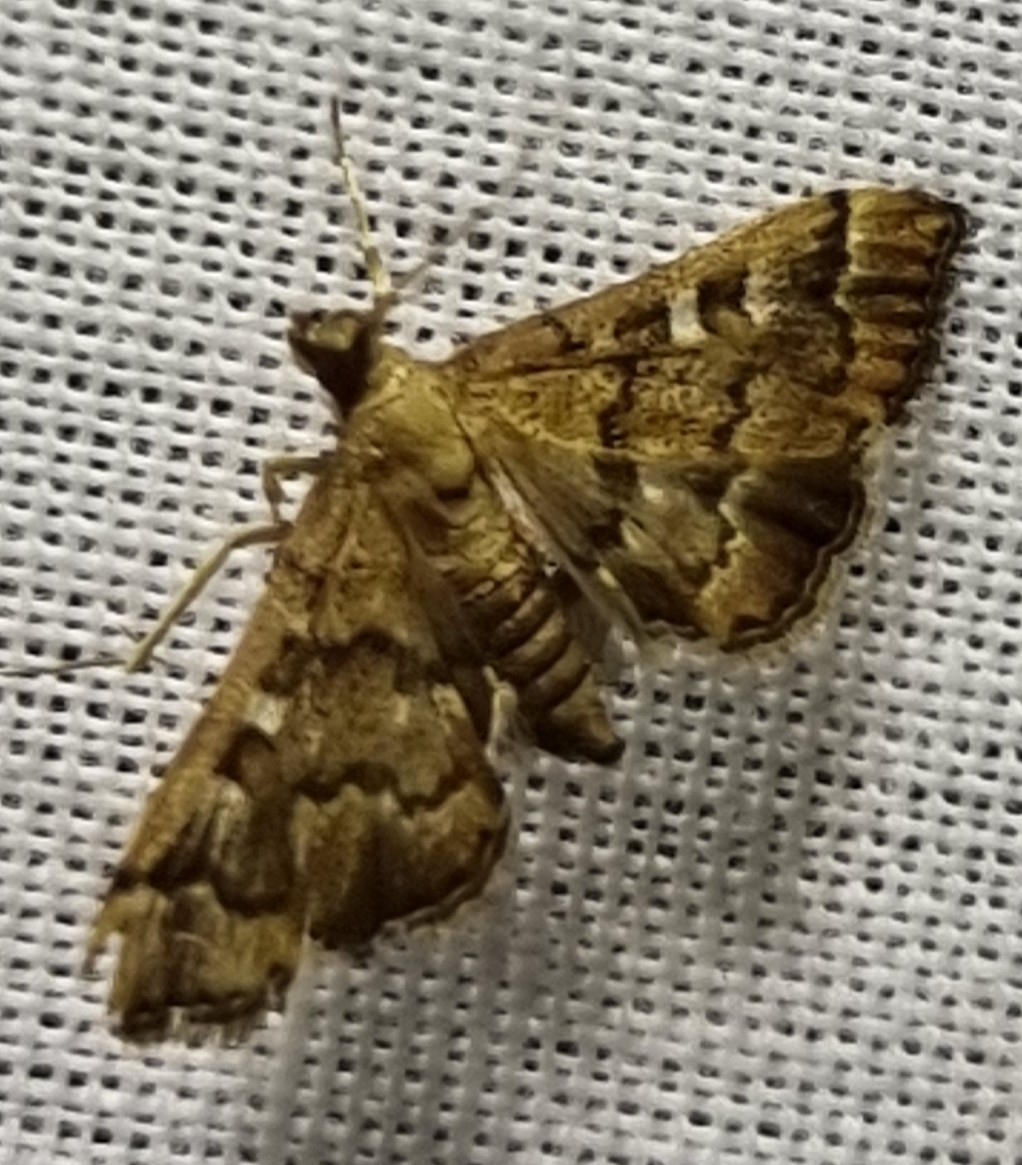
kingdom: Animalia
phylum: Arthropoda
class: Insecta
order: Lepidoptera
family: Crambidae
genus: Nacoleia
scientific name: Nacoleia rhoeoalis
